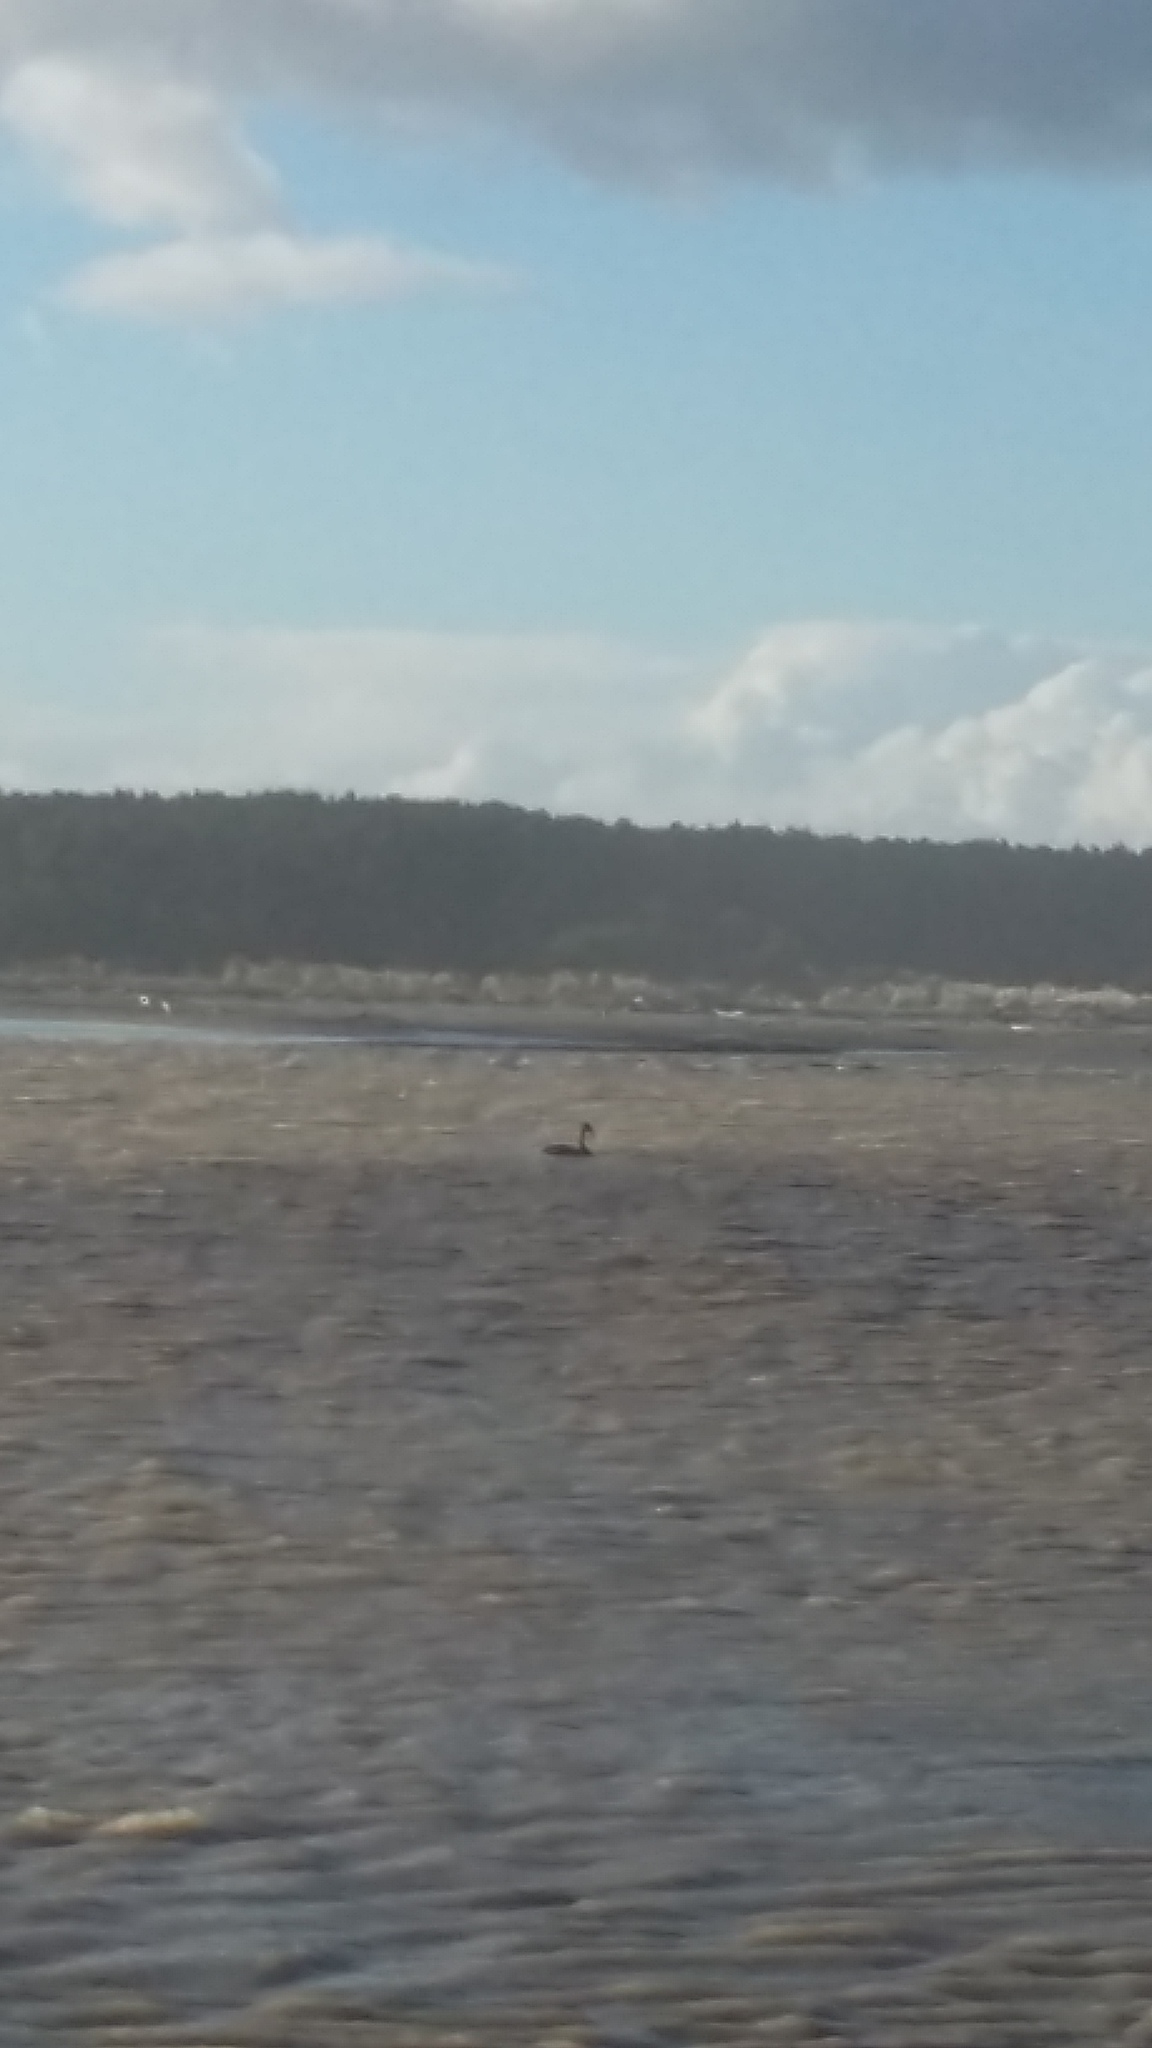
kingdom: Animalia
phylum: Chordata
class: Aves
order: Anseriformes
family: Anatidae
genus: Cygnus
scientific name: Cygnus atratus
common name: Black swan
